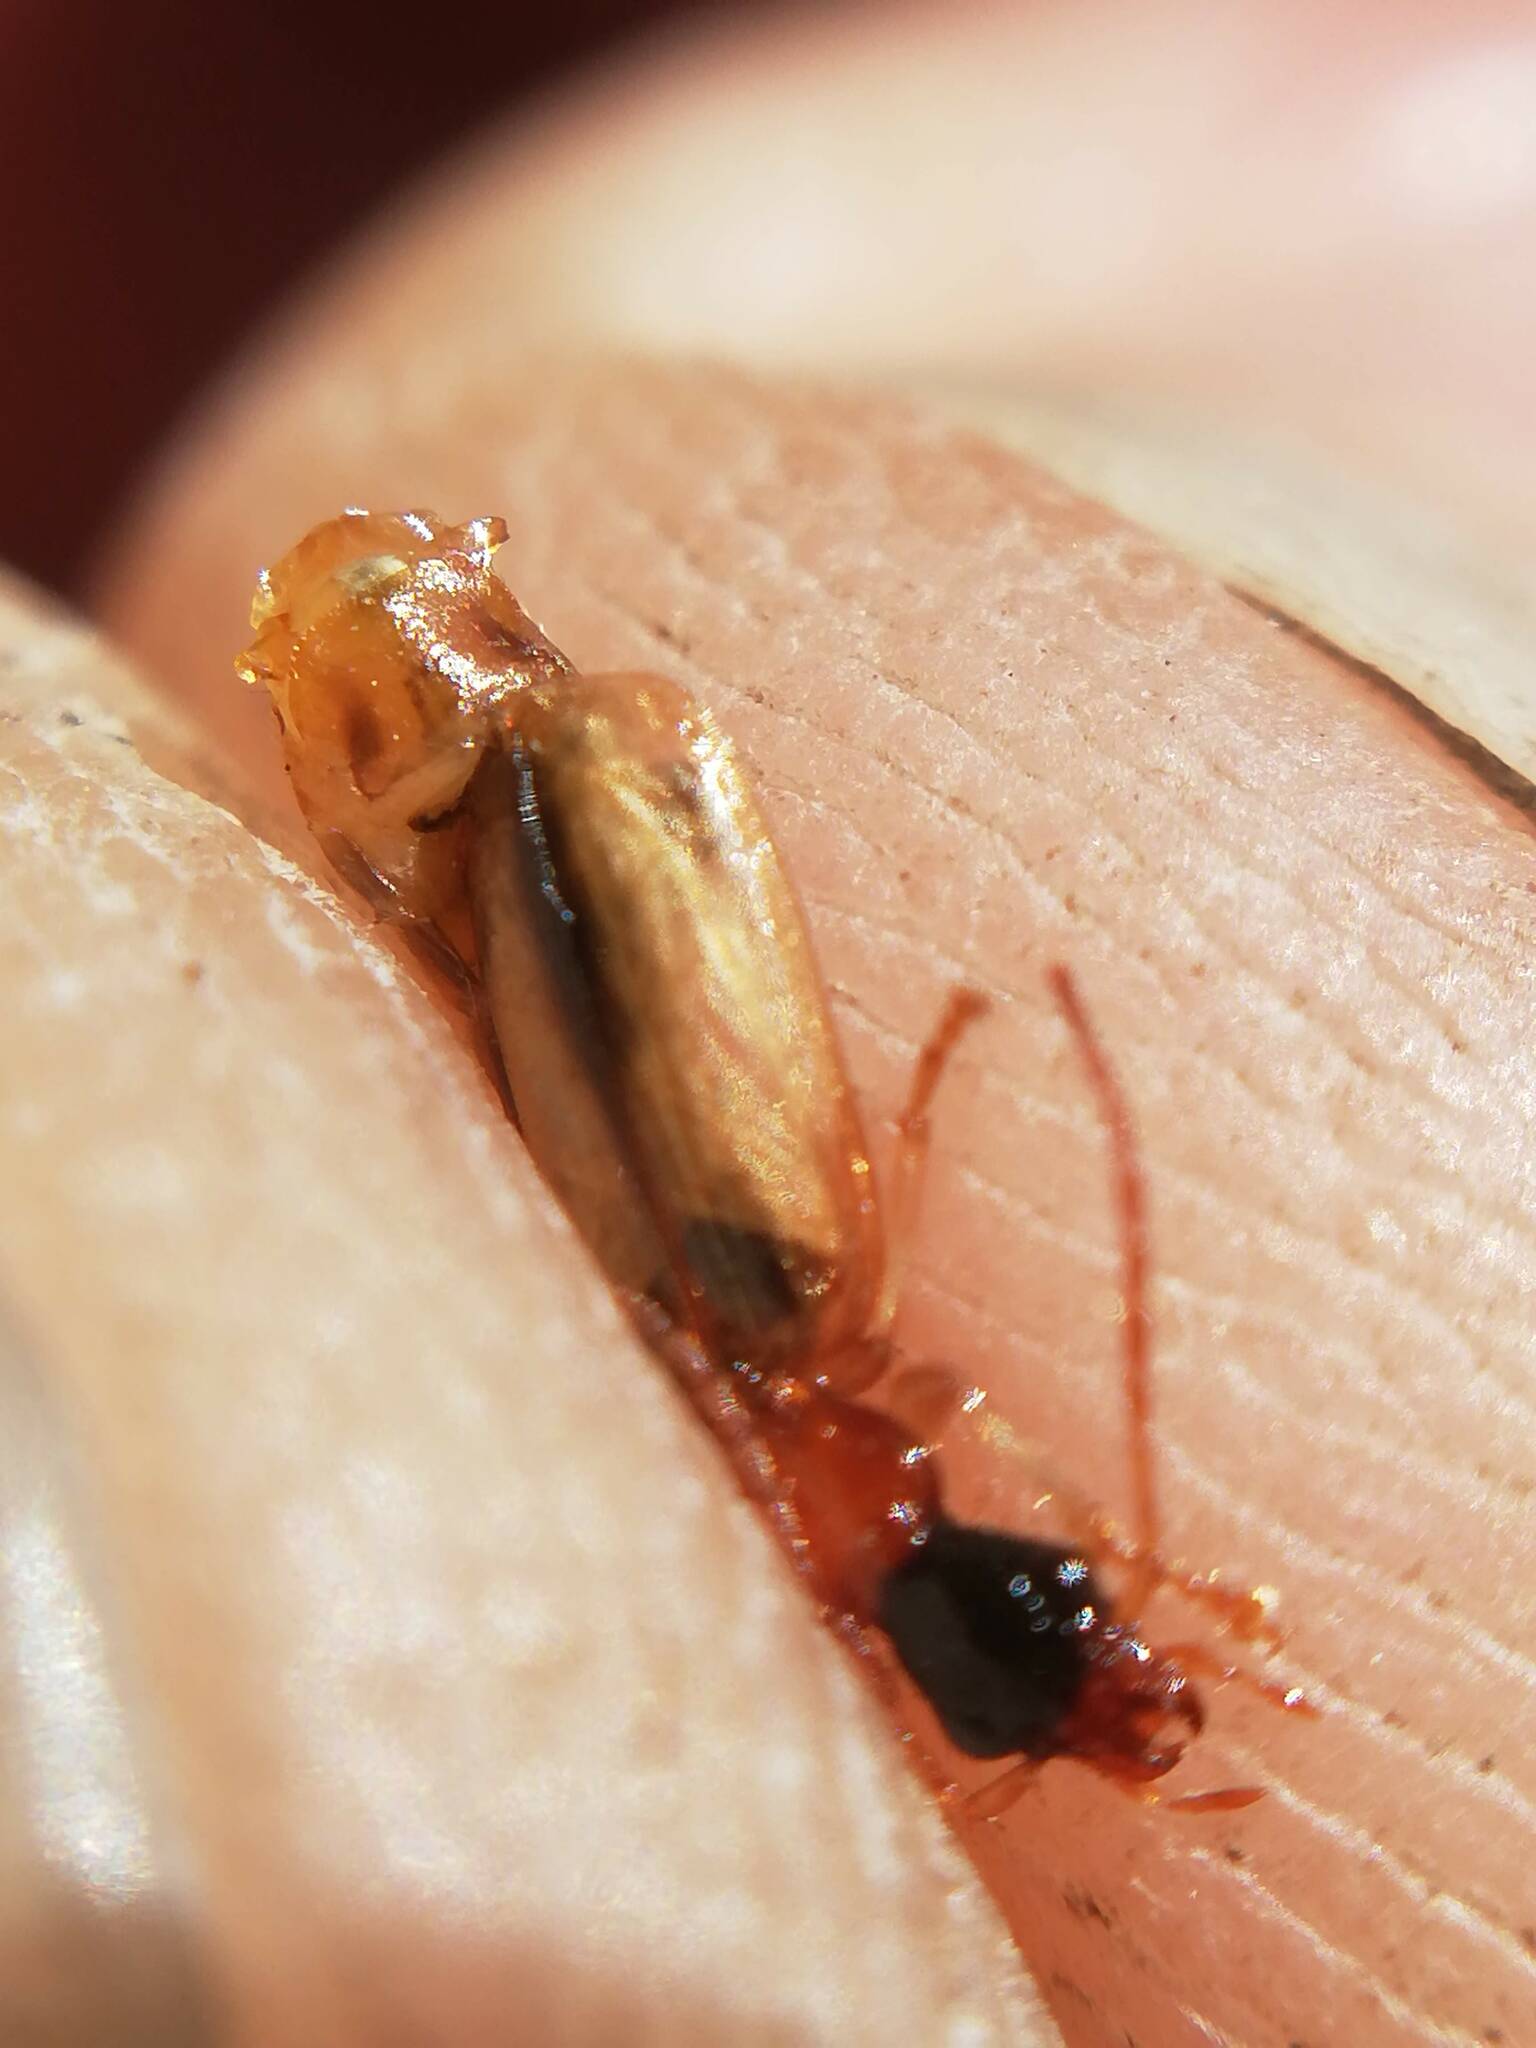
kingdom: Animalia
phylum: Arthropoda
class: Insecta
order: Coleoptera
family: Carabidae
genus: Demetrias
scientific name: Demetrias atricapillus
